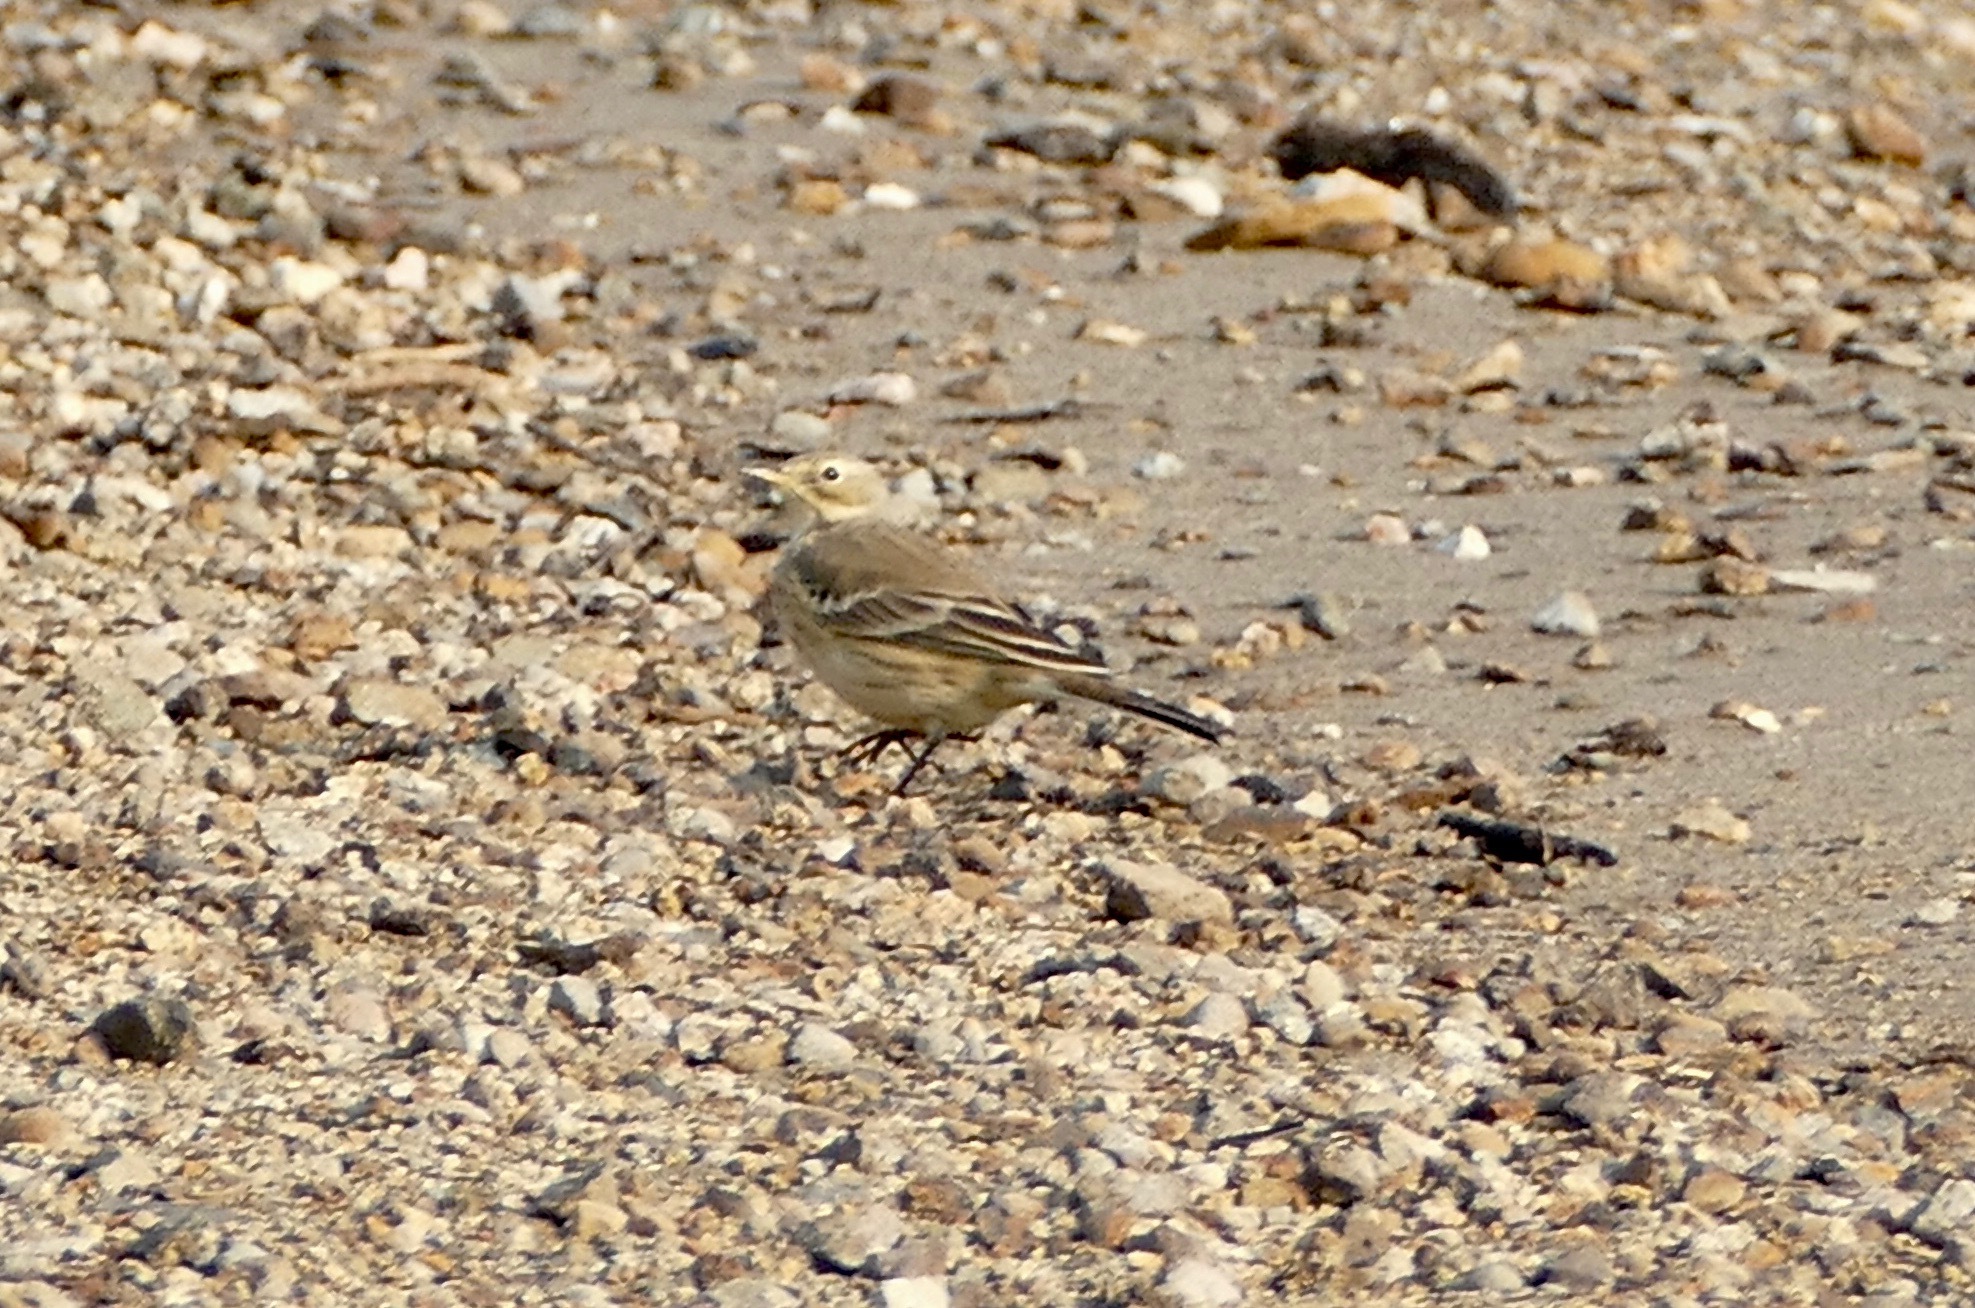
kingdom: Animalia
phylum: Chordata
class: Aves
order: Passeriformes
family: Motacillidae
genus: Anthus
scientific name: Anthus rubescens
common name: Buff-bellied pipit
